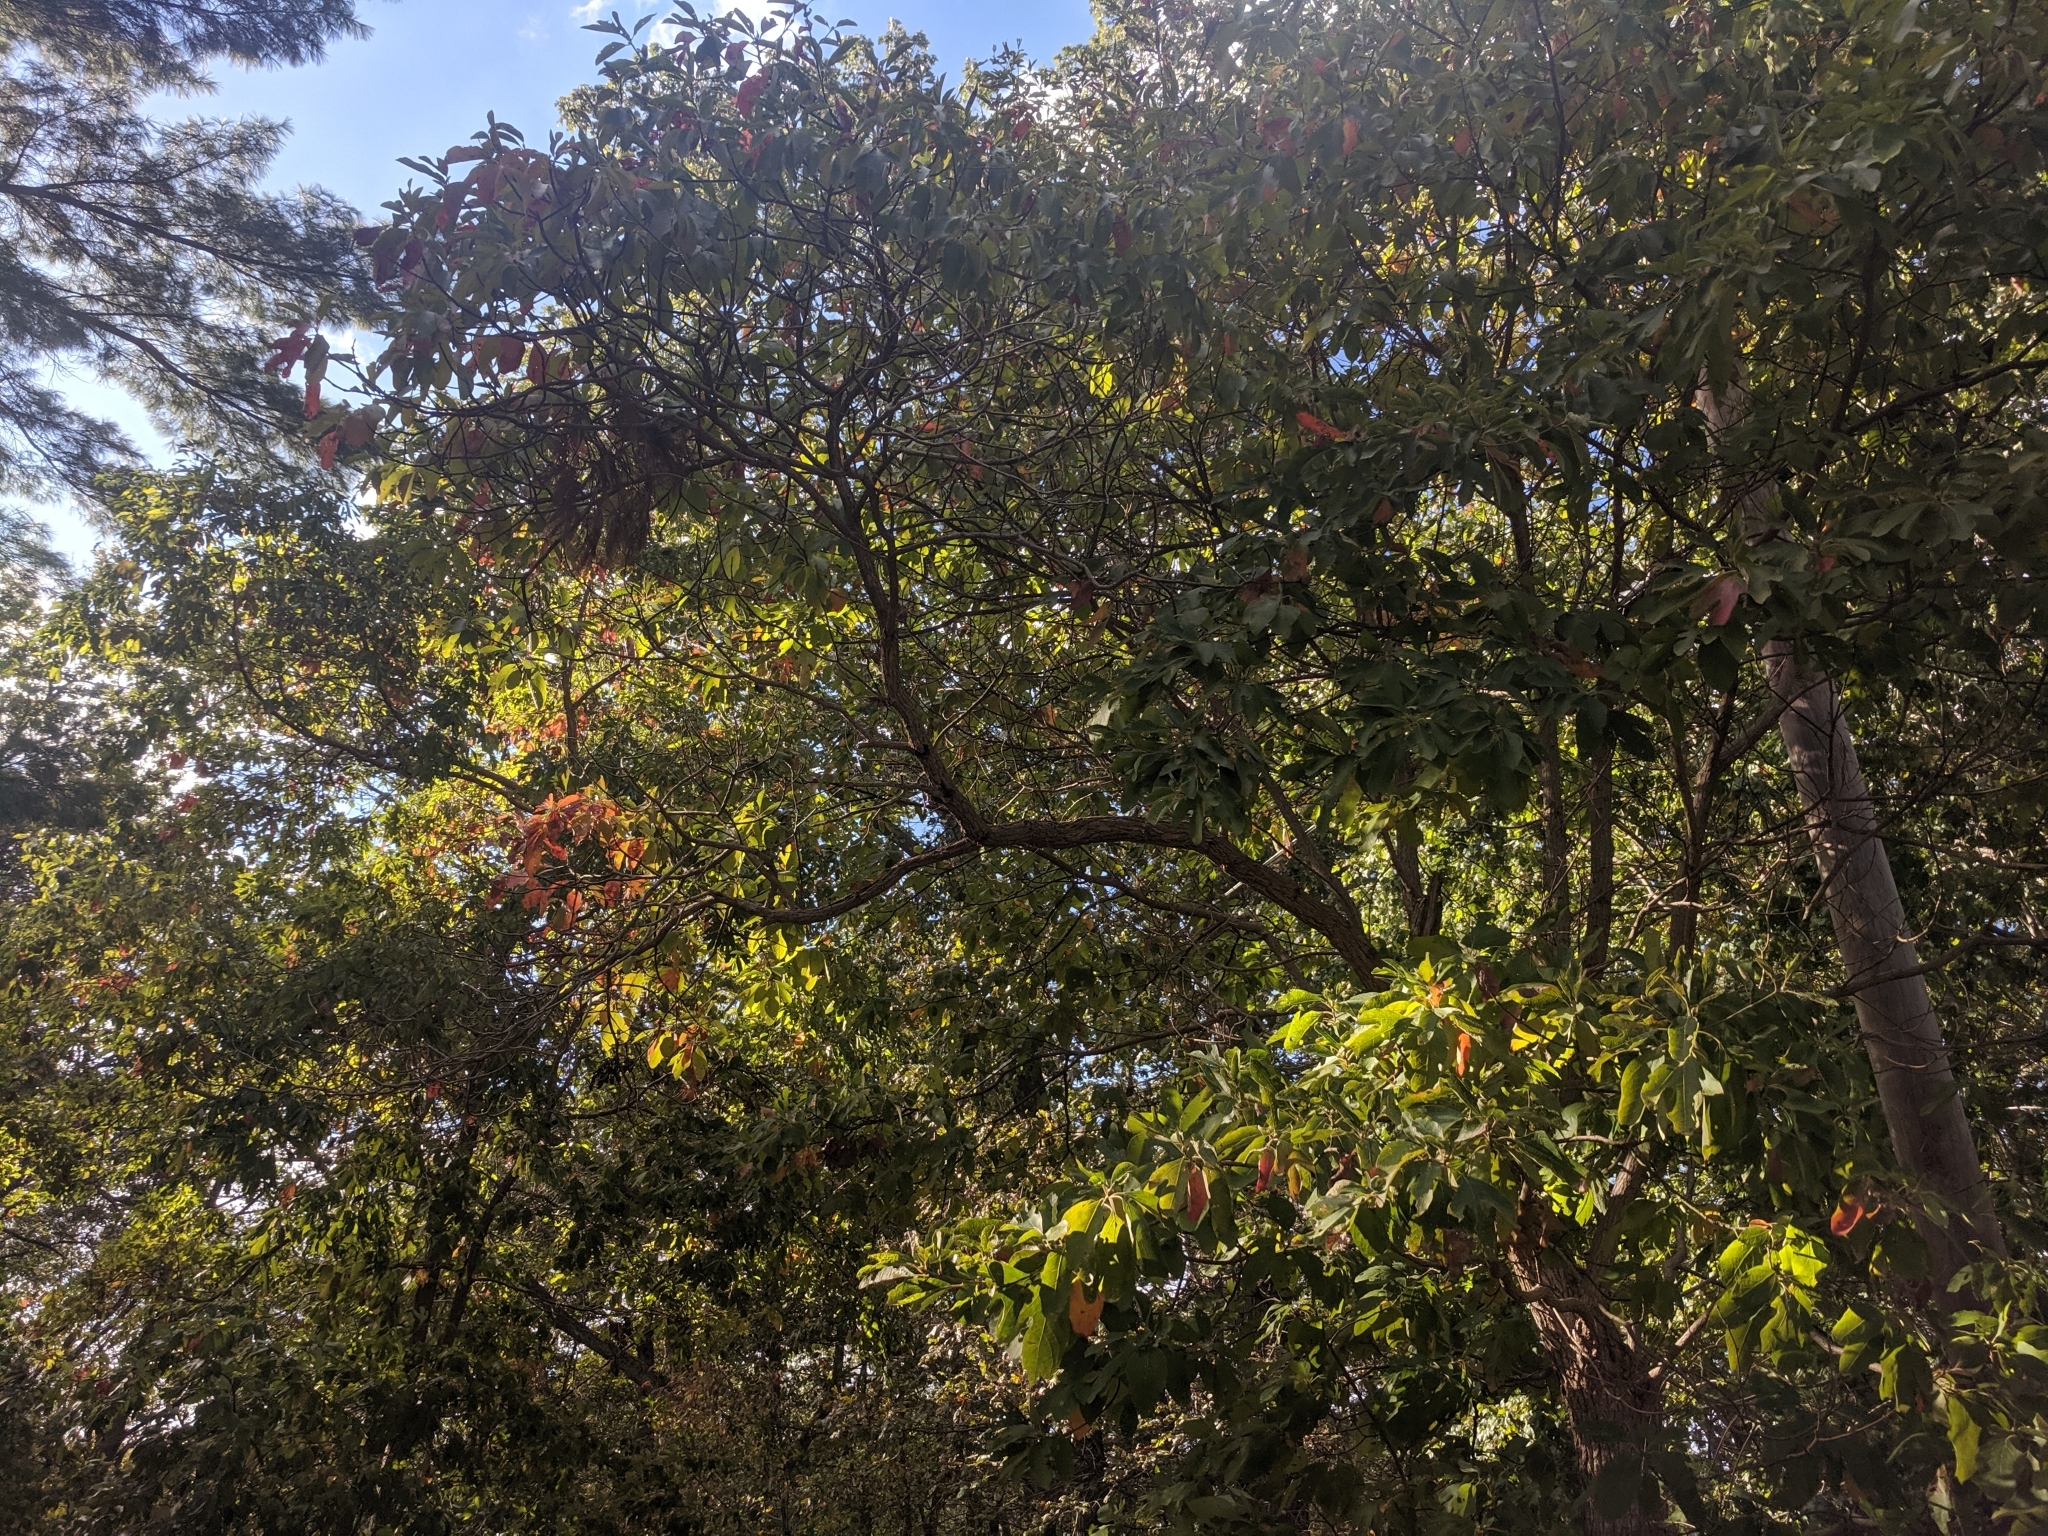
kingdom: Plantae
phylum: Tracheophyta
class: Magnoliopsida
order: Laurales
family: Lauraceae
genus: Sassafras
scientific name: Sassafras albidum
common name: Sassafras
